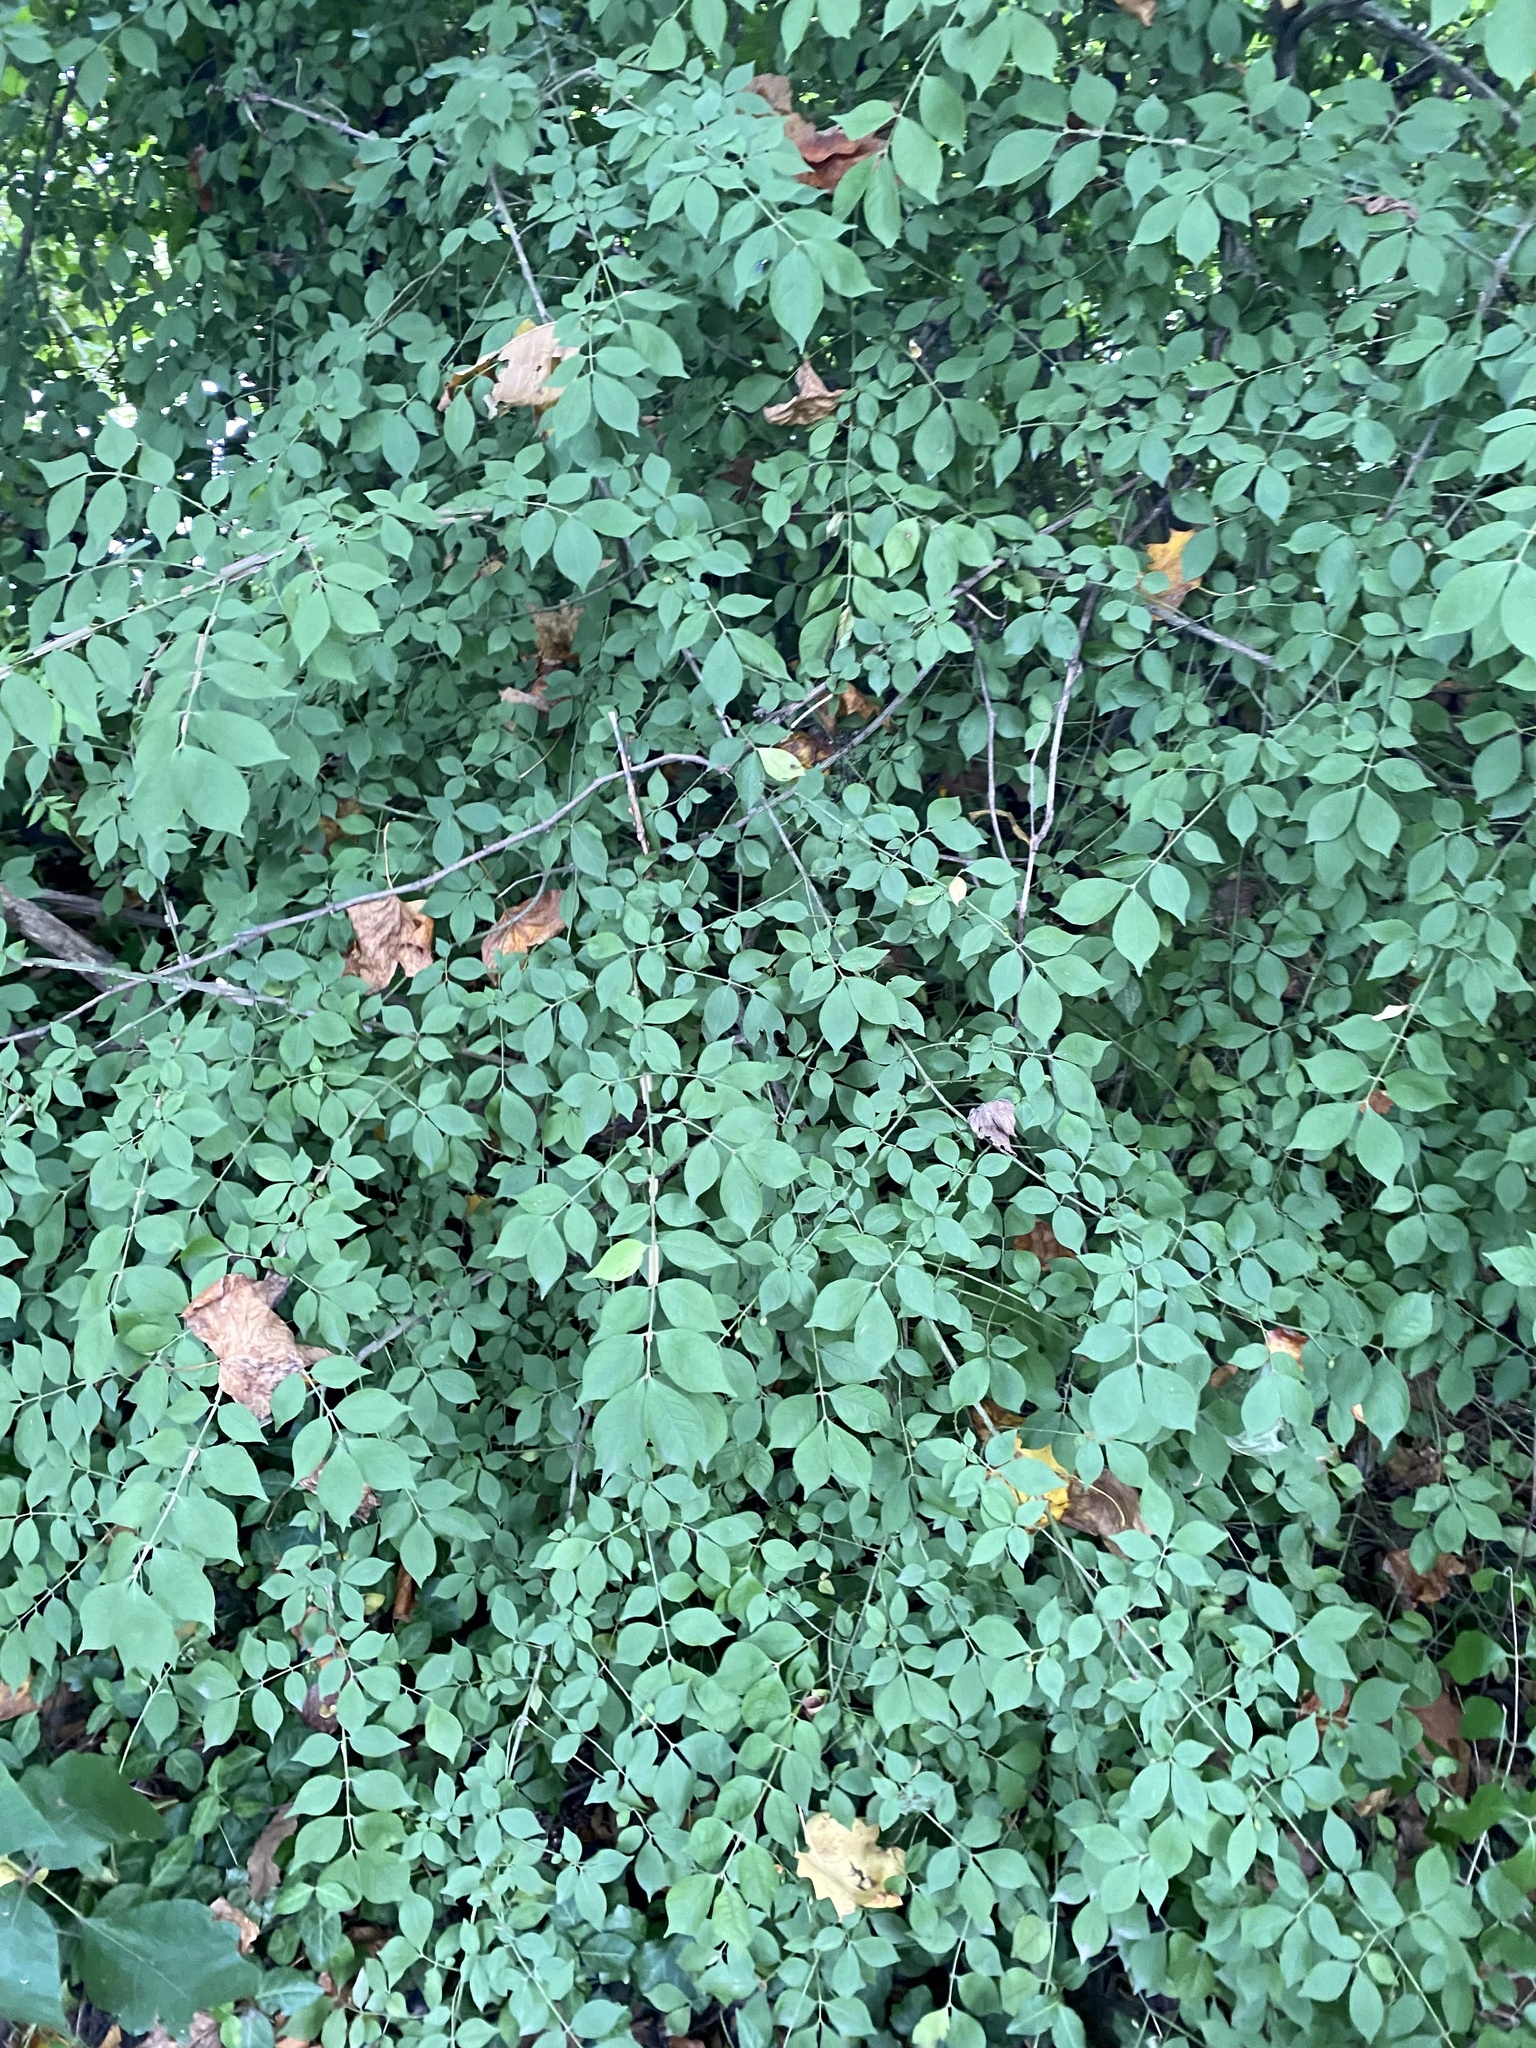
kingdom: Plantae
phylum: Tracheophyta
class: Magnoliopsida
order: Celastrales
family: Celastraceae
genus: Euonymus
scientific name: Euonymus alatus
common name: Winged euonymus
